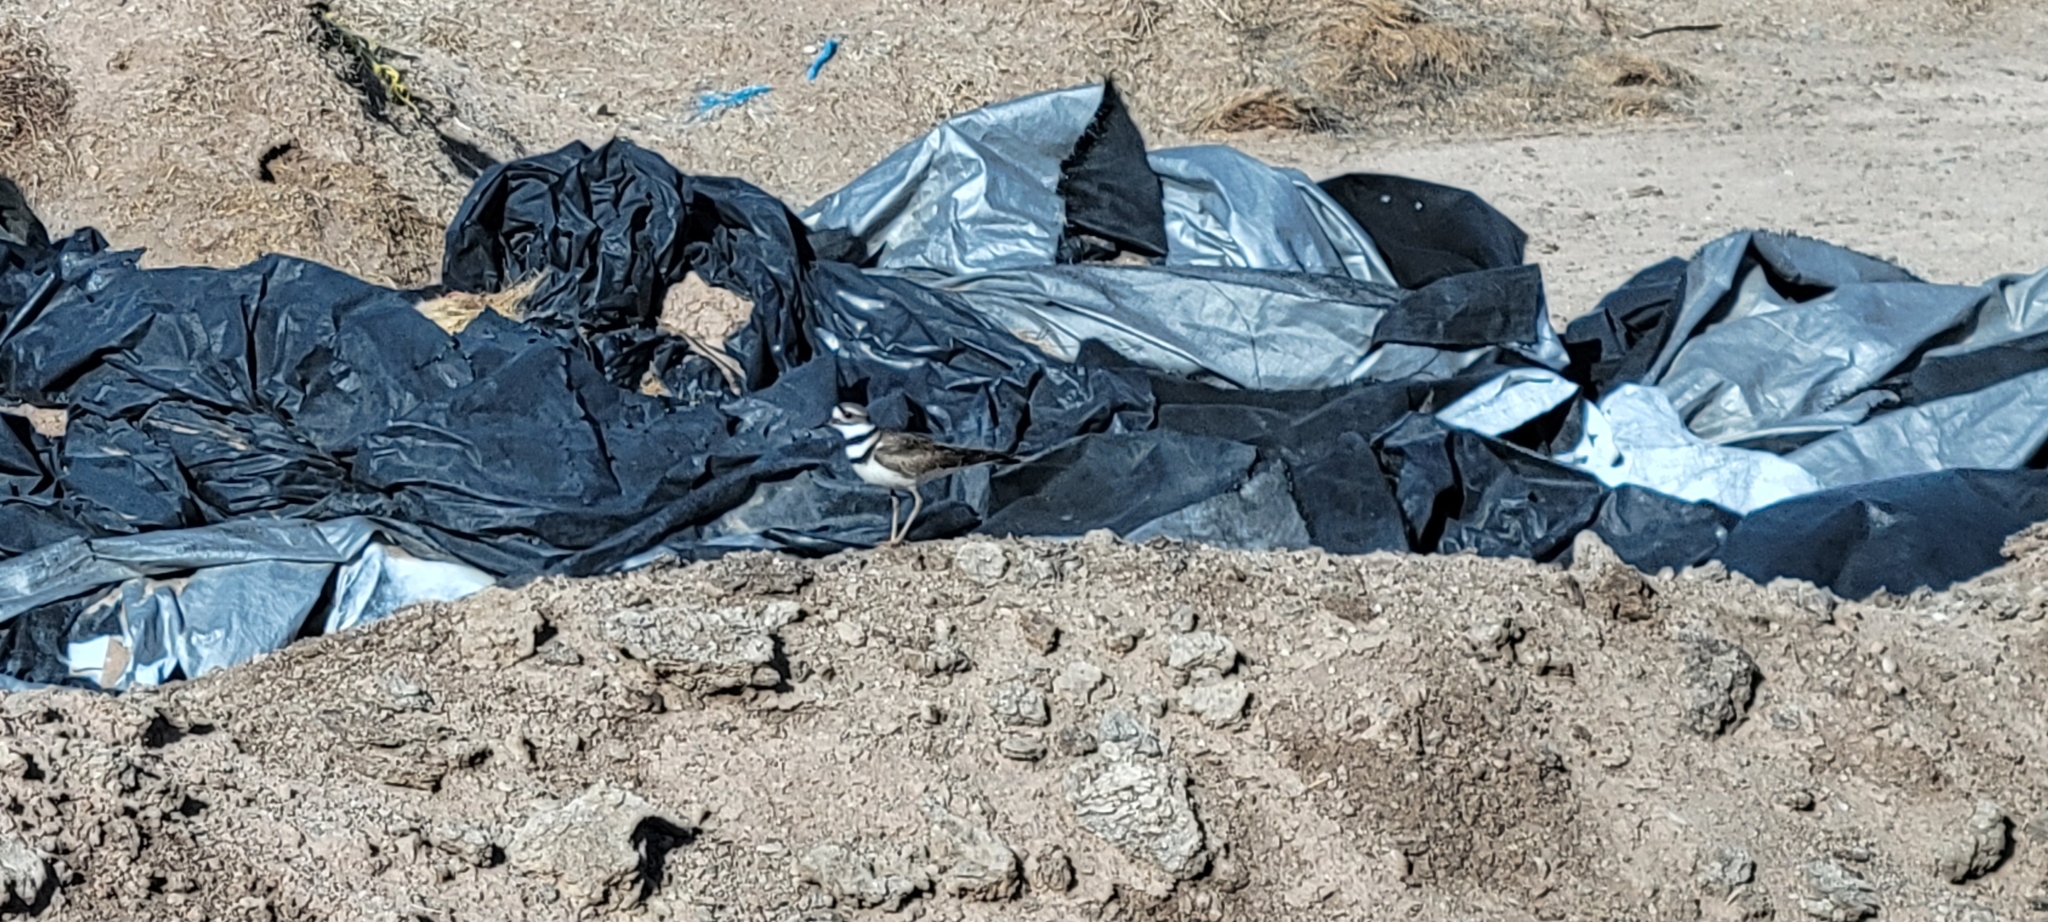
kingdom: Animalia
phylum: Chordata
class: Aves
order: Charadriiformes
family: Charadriidae
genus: Charadrius
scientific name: Charadrius vociferus
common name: Killdeer
